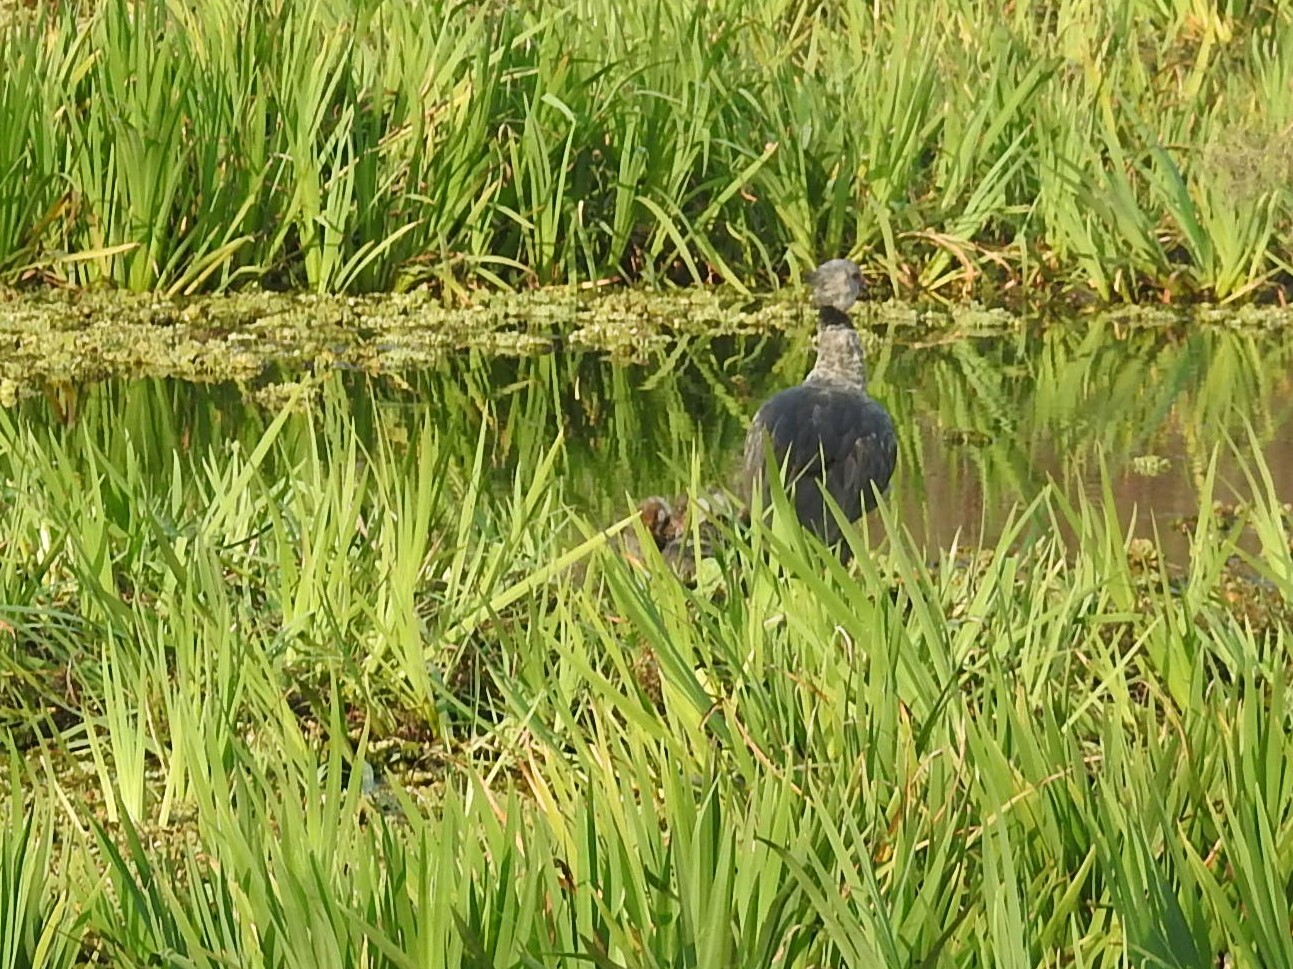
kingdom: Animalia
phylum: Chordata
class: Aves
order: Anseriformes
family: Anhimidae
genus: Chauna
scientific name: Chauna torquata
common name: Southern screamer
